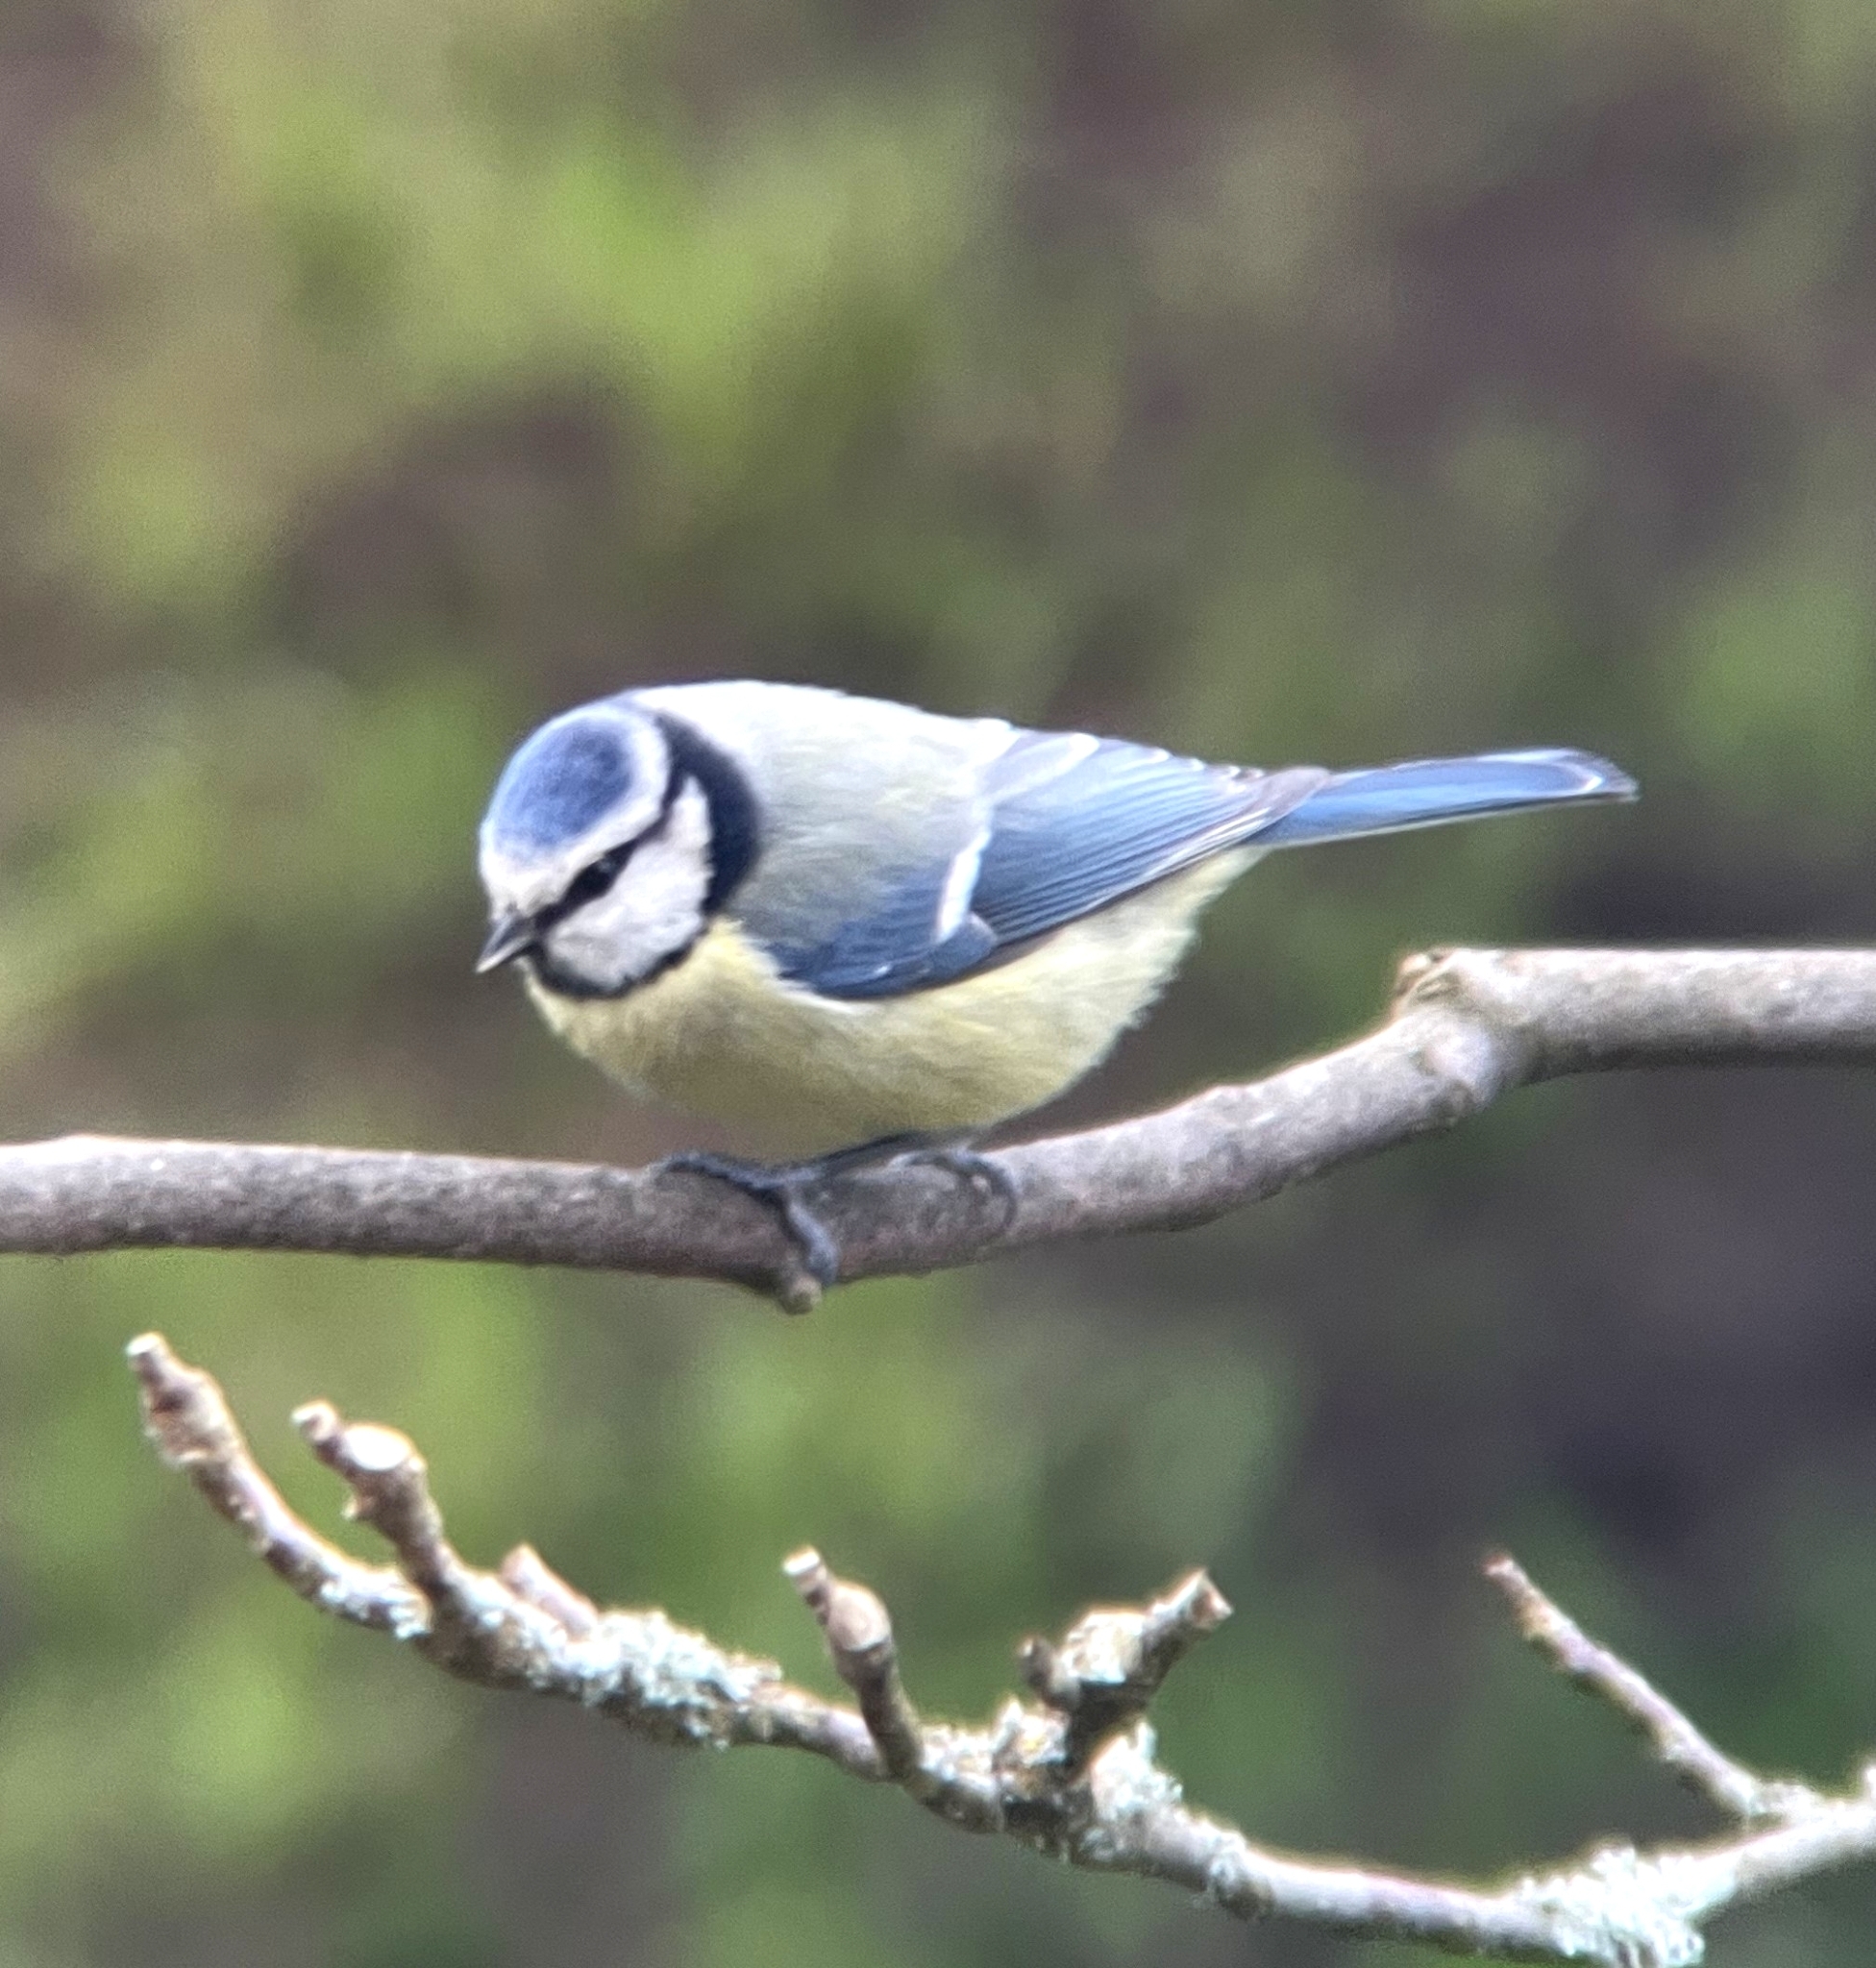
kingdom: Animalia
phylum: Chordata
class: Aves
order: Passeriformes
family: Paridae
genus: Cyanistes
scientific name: Cyanistes caeruleus
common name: Eurasian blue tit
